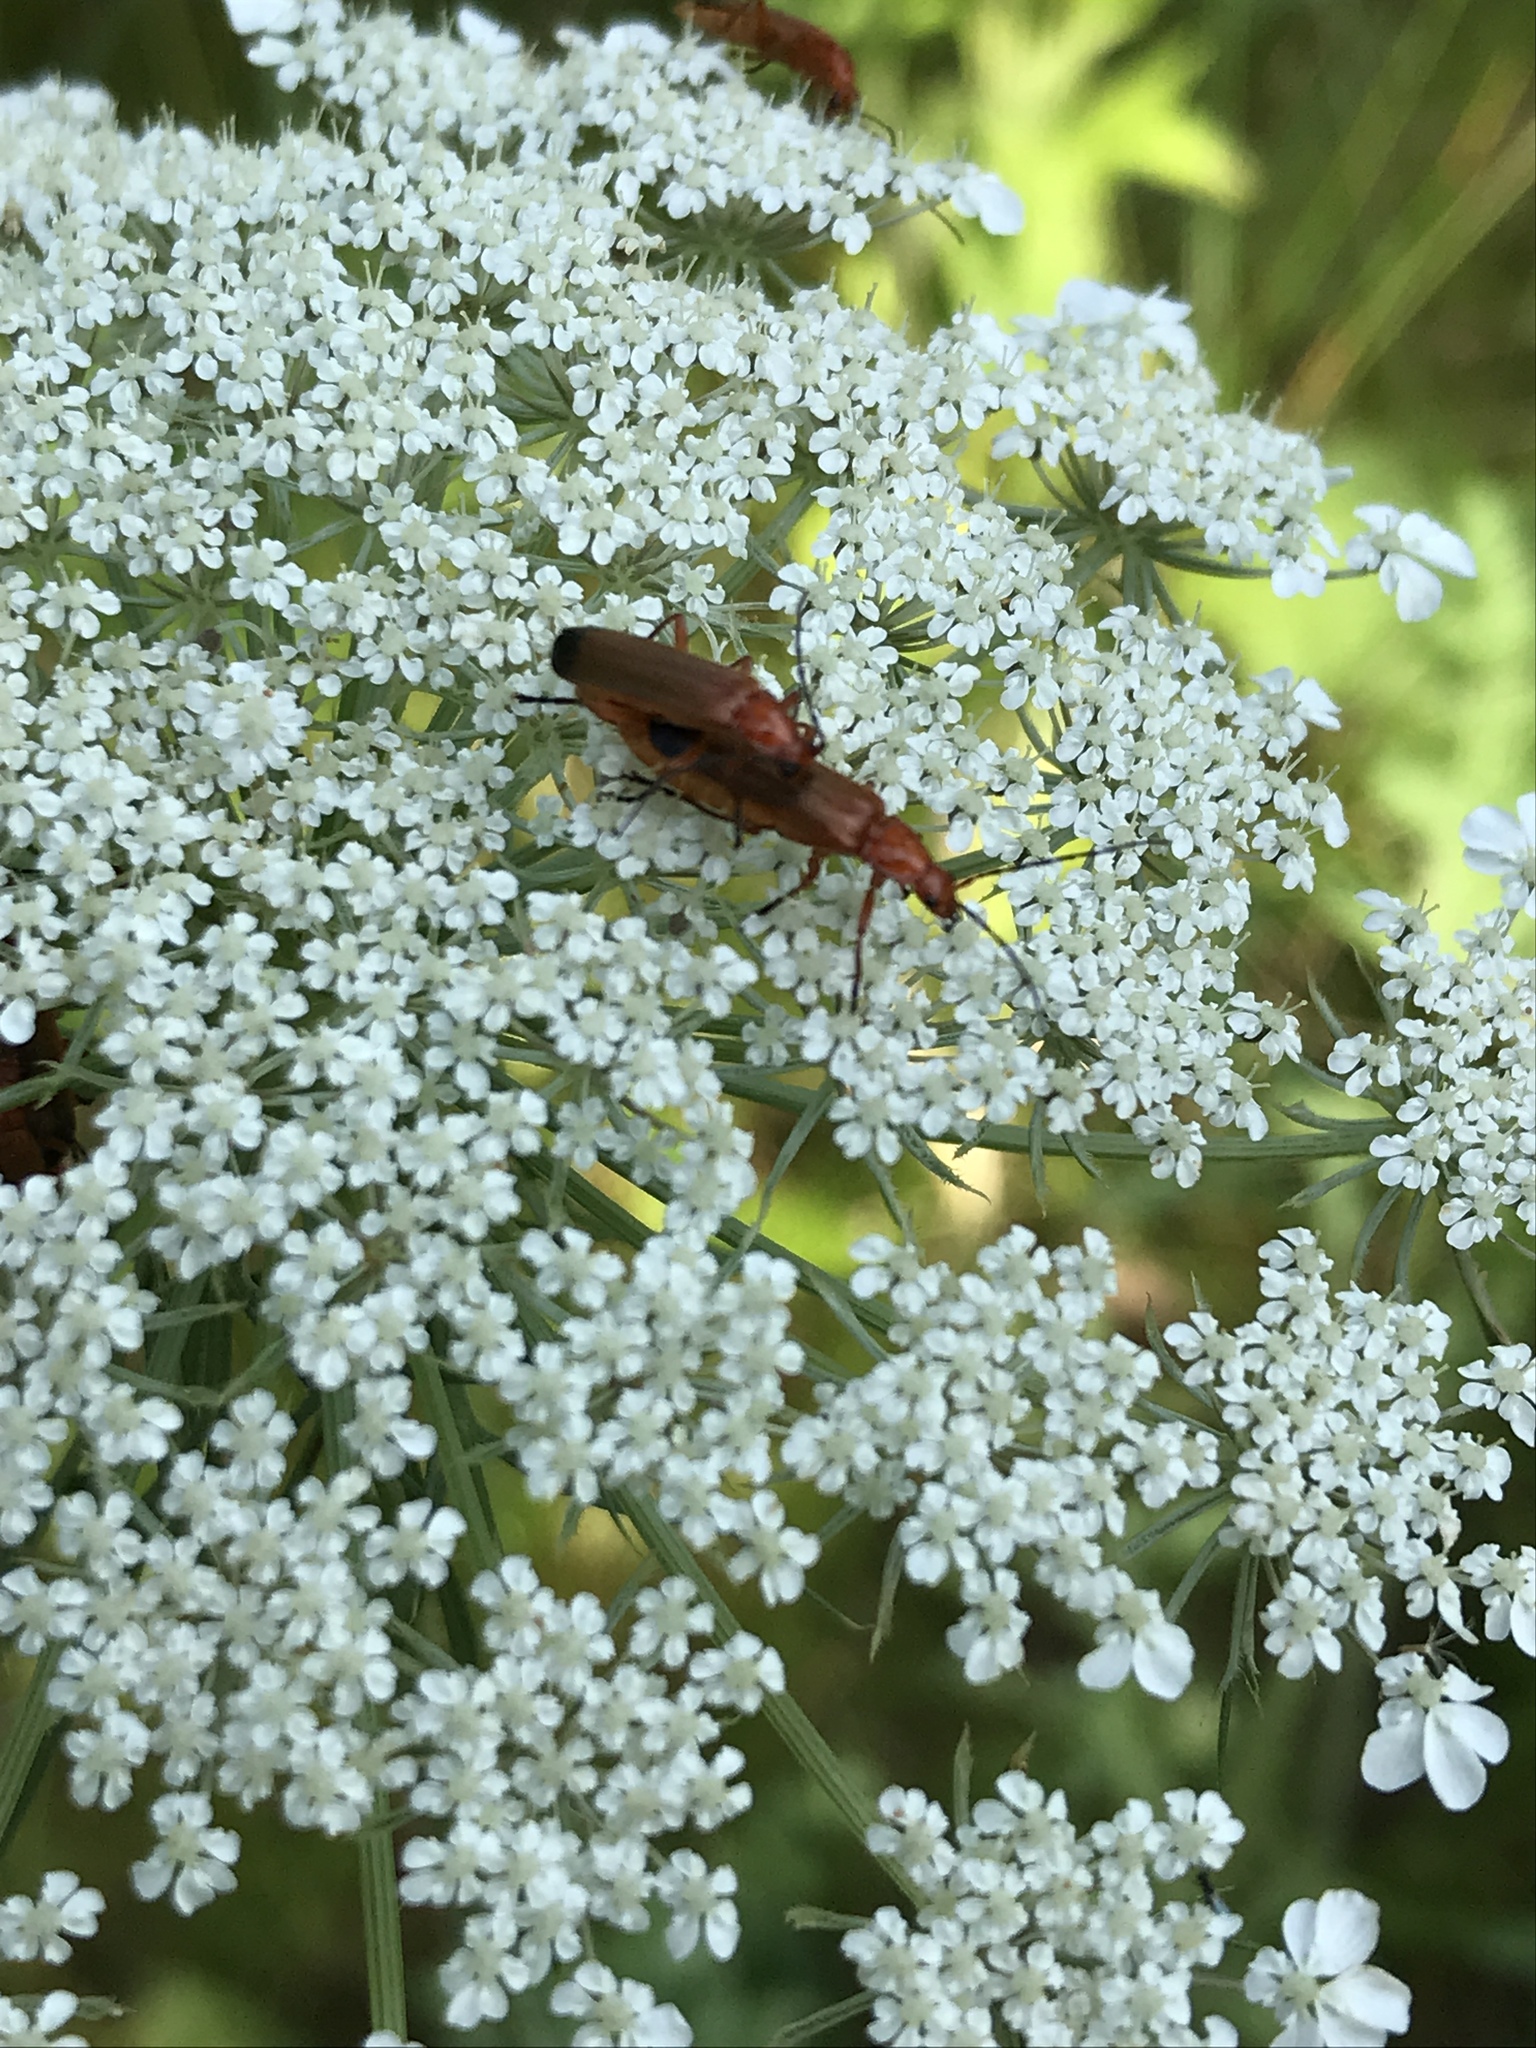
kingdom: Animalia
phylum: Arthropoda
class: Insecta
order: Coleoptera
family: Cantharidae
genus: Rhagonycha
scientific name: Rhagonycha fulva
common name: Common red soldier beetle
